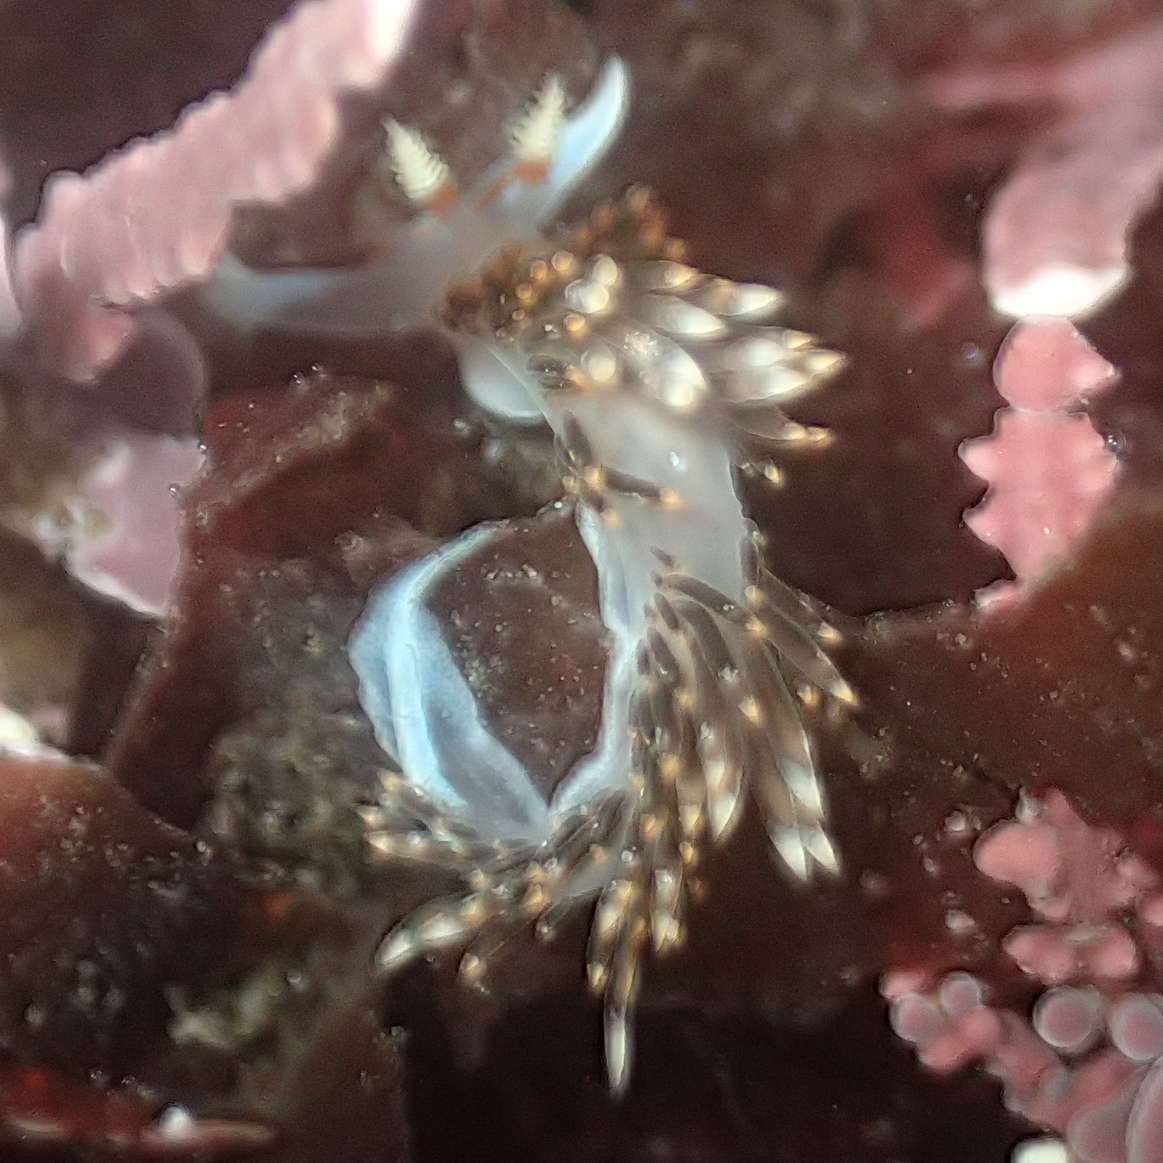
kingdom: Animalia
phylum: Mollusca
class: Gastropoda
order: Nudibranchia
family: Facelinidae
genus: Phidiana
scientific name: Phidiana hiltoni
